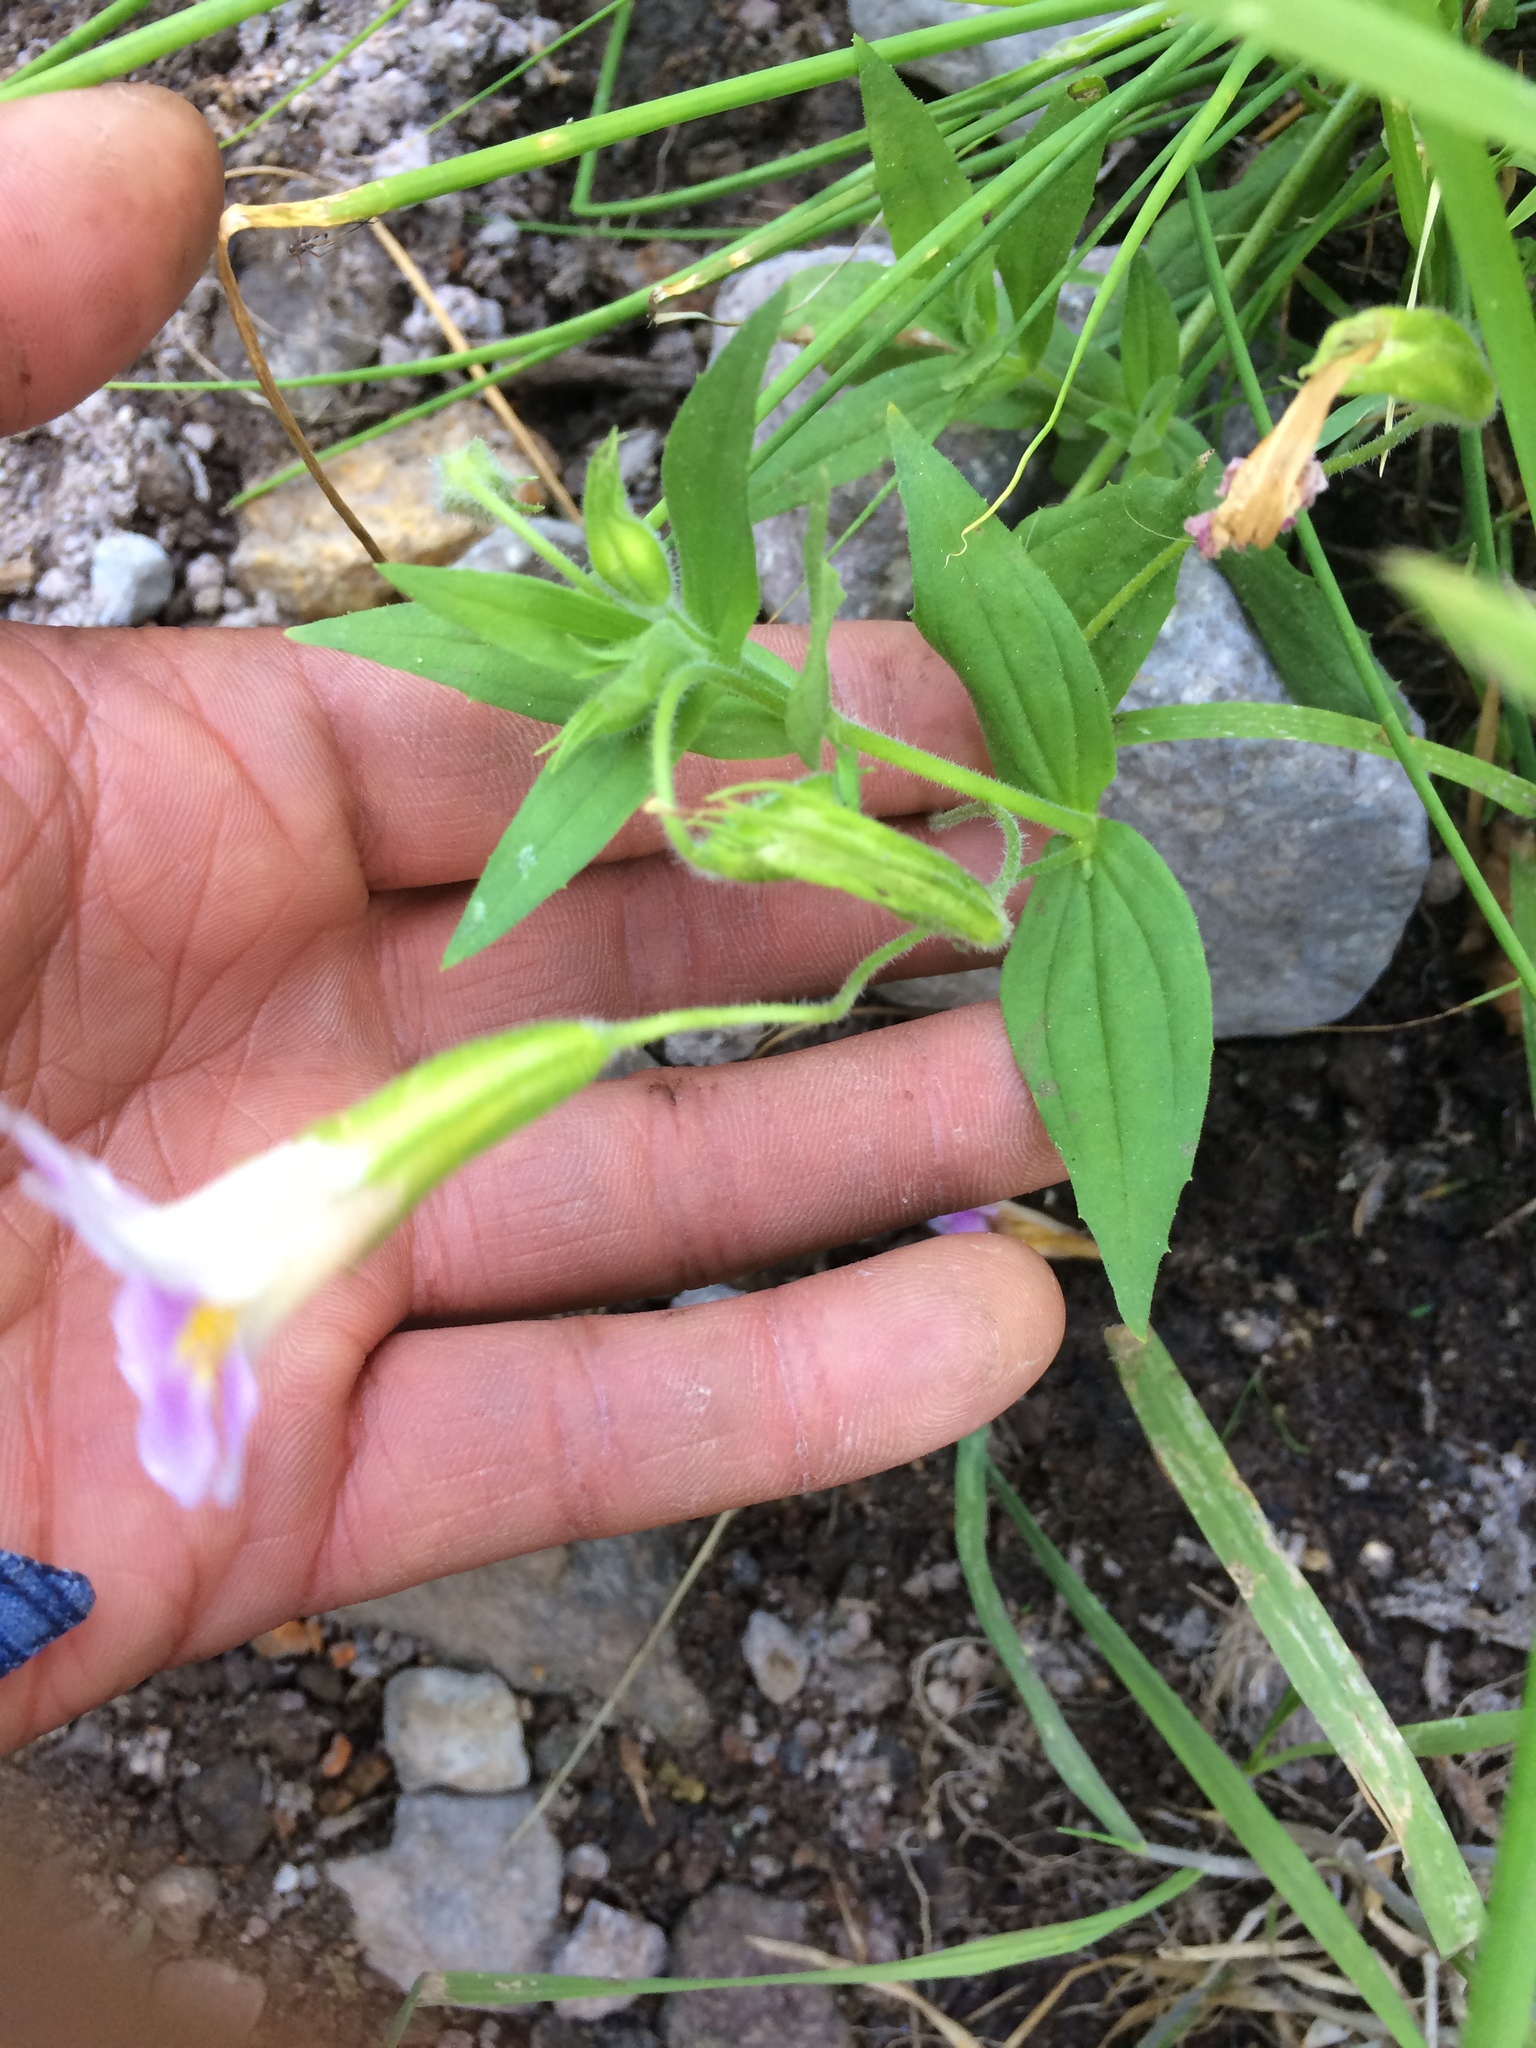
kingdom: Plantae
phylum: Tracheophyta
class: Magnoliopsida
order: Lamiales
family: Phrymaceae
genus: Erythranthe
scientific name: Erythranthe erubescens
